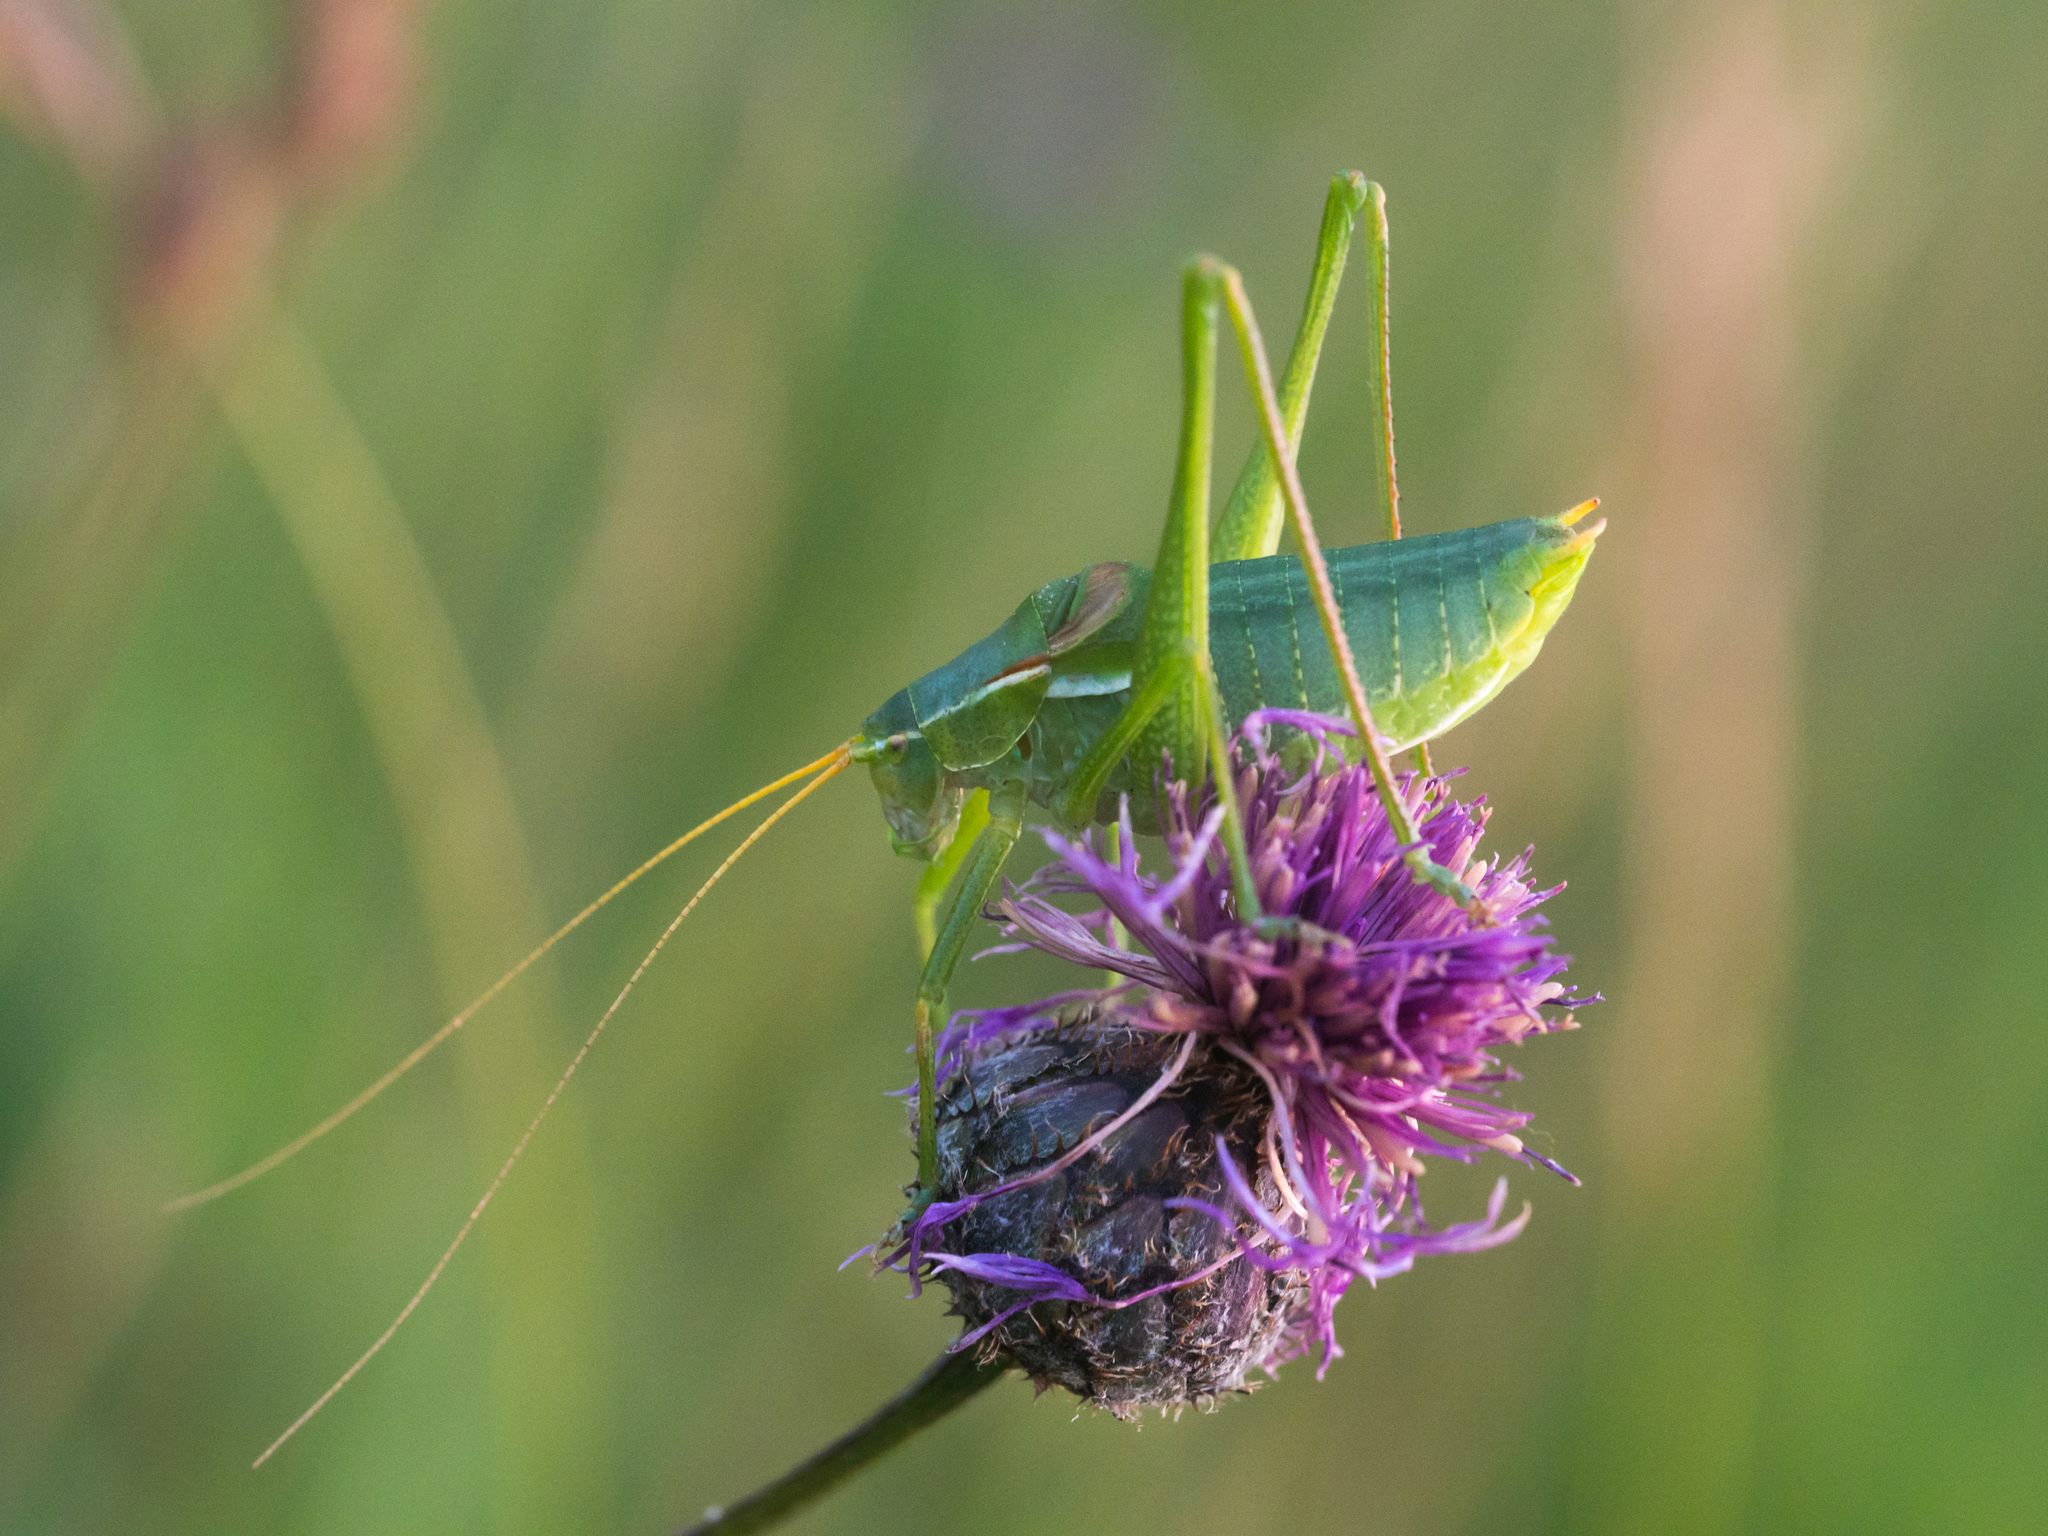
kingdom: Animalia
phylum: Arthropoda
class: Insecta
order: Orthoptera
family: Tettigoniidae
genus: Isophya
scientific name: Isophya costata
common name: Keeled plump bush-cricket
